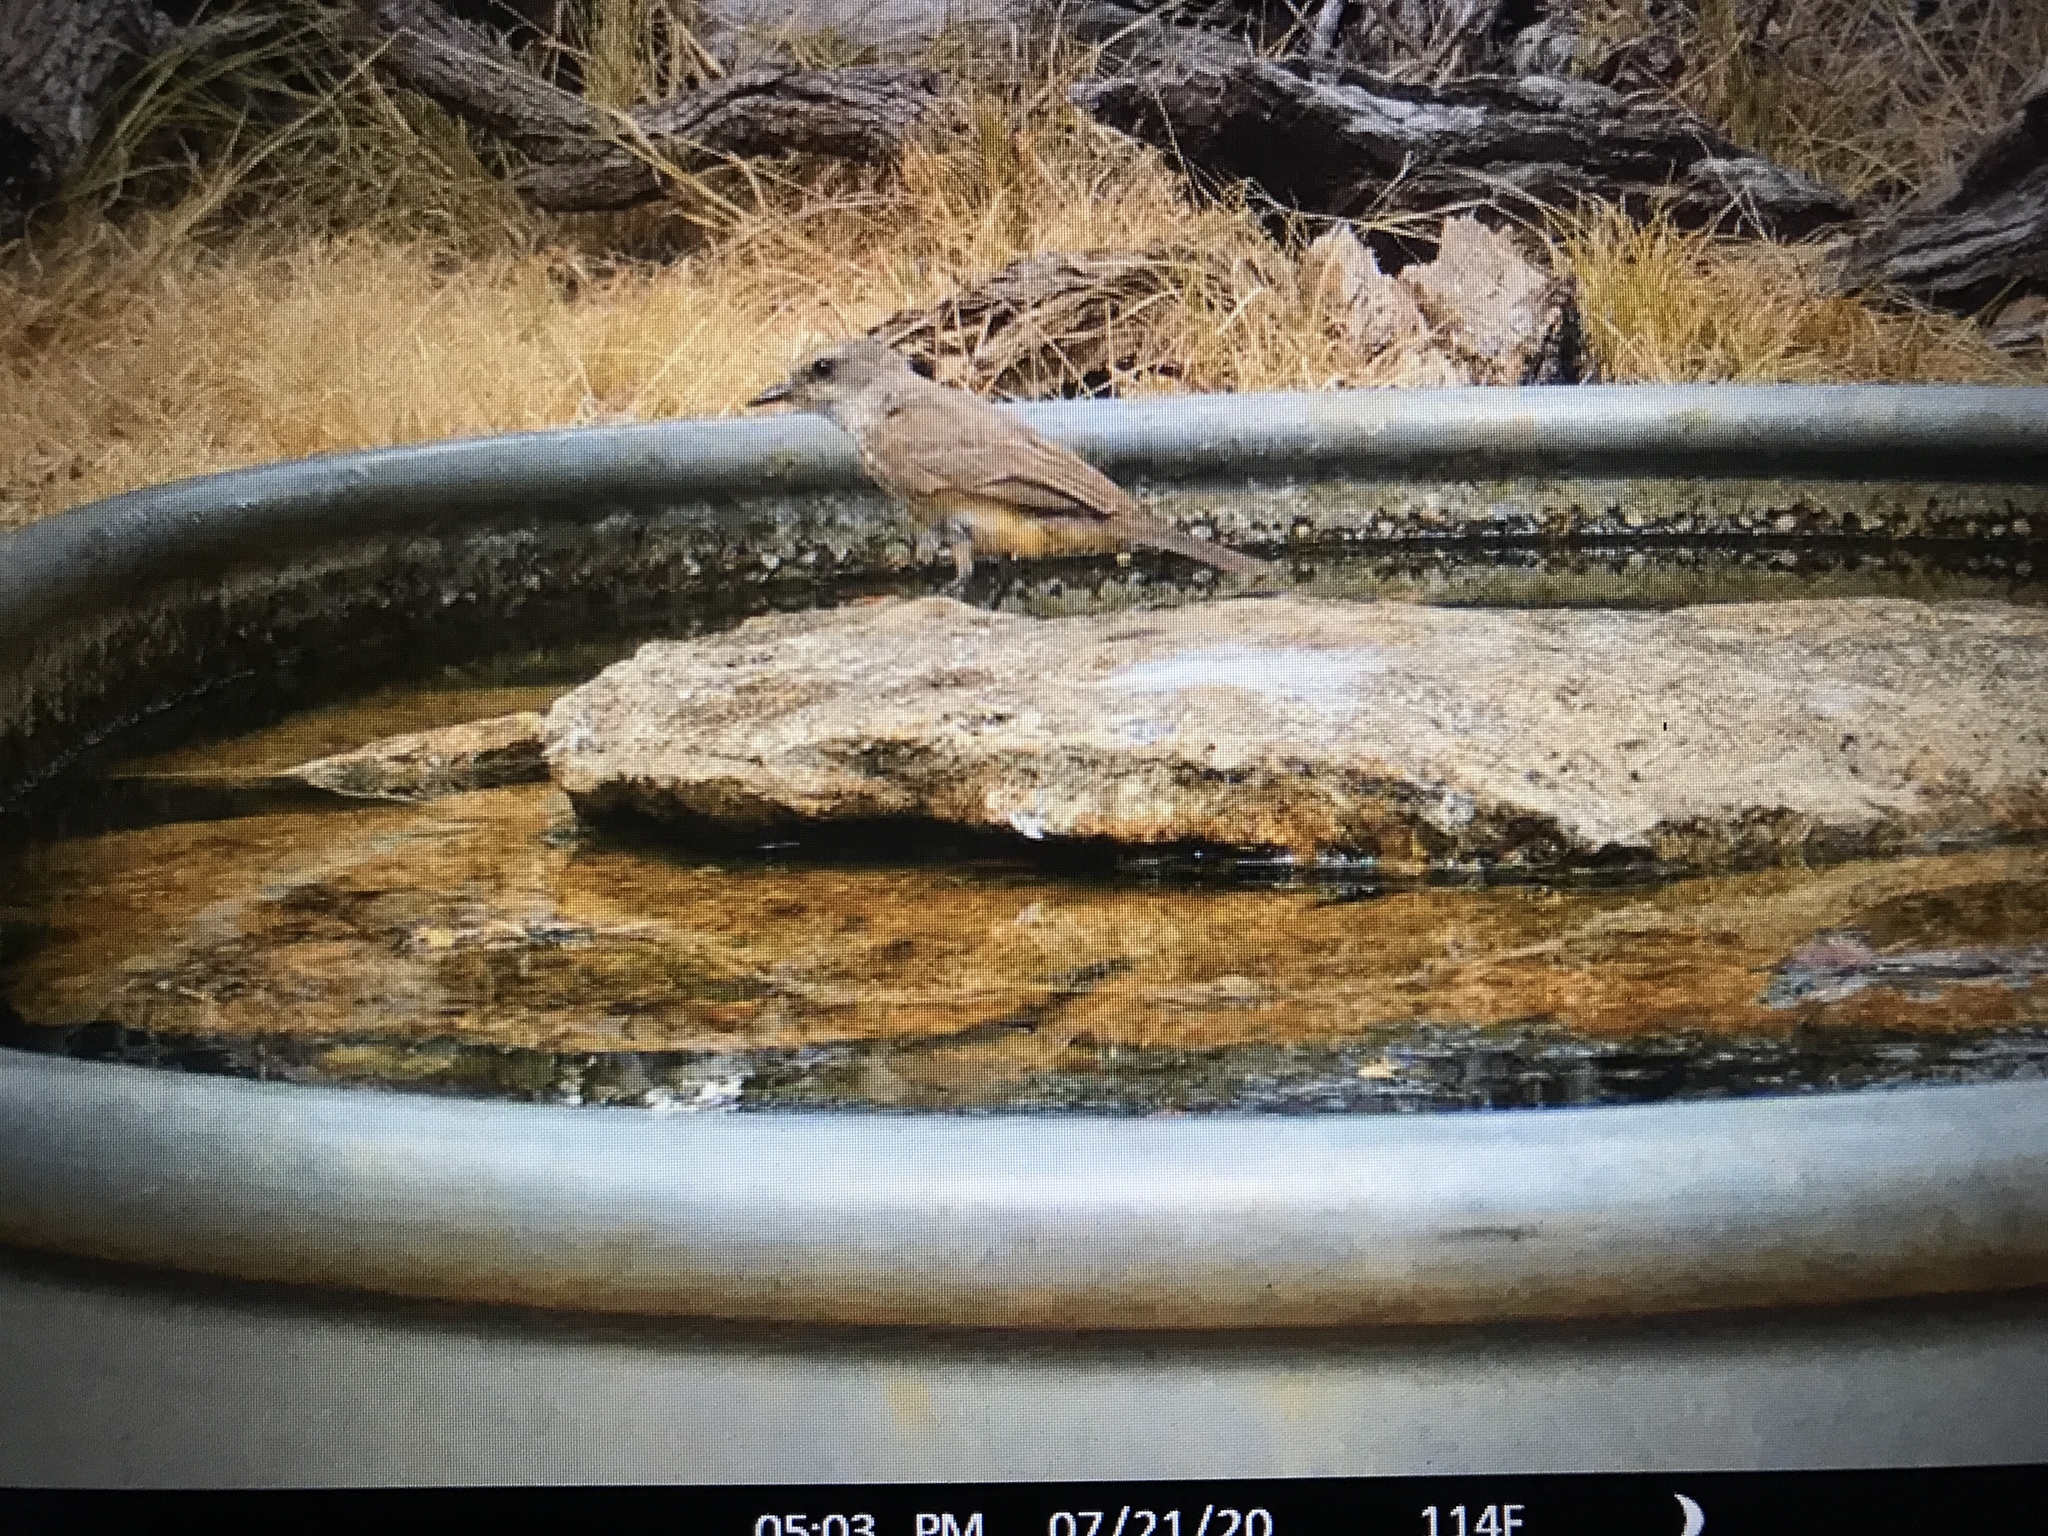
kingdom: Animalia
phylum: Chordata
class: Aves
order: Passeriformes
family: Tyrannidae
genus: Pyrocephalus
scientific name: Pyrocephalus rubinus
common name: Vermilion flycatcher
